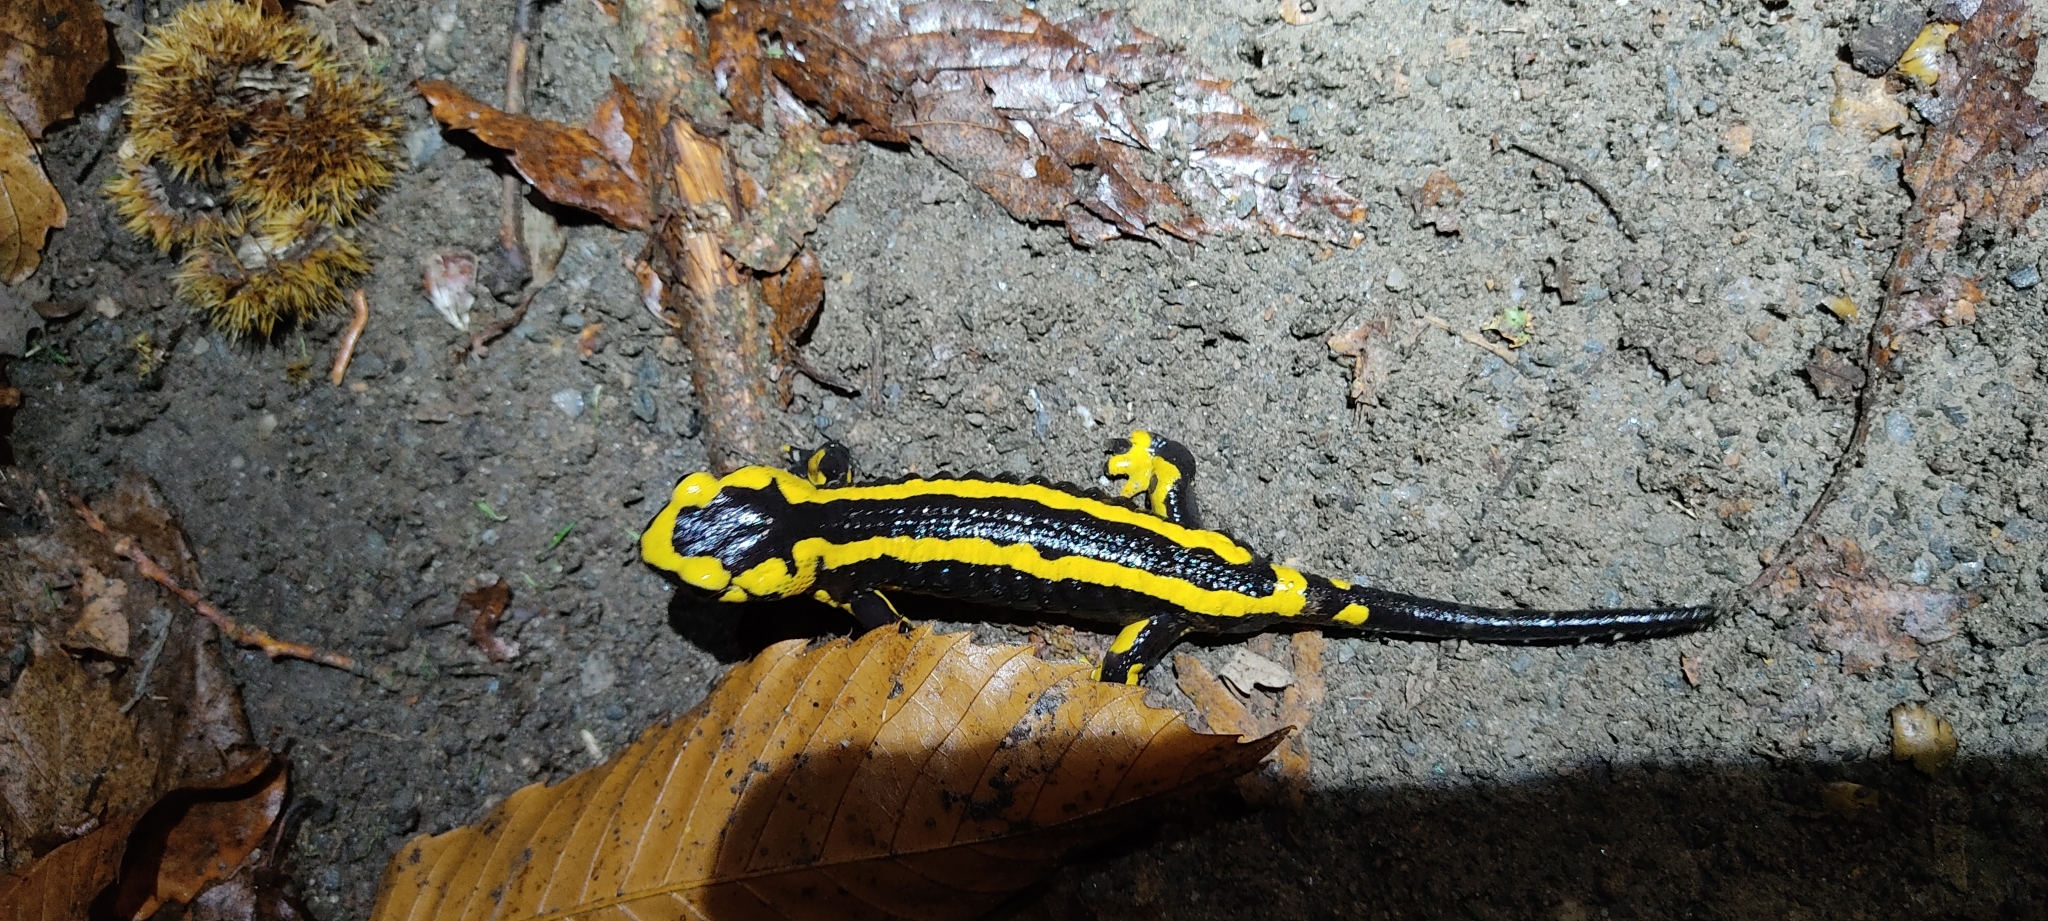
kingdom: Animalia
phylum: Chordata
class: Amphibia
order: Caudata
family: Salamandridae
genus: Salamandra
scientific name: Salamandra salamandra
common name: Fire salamander
